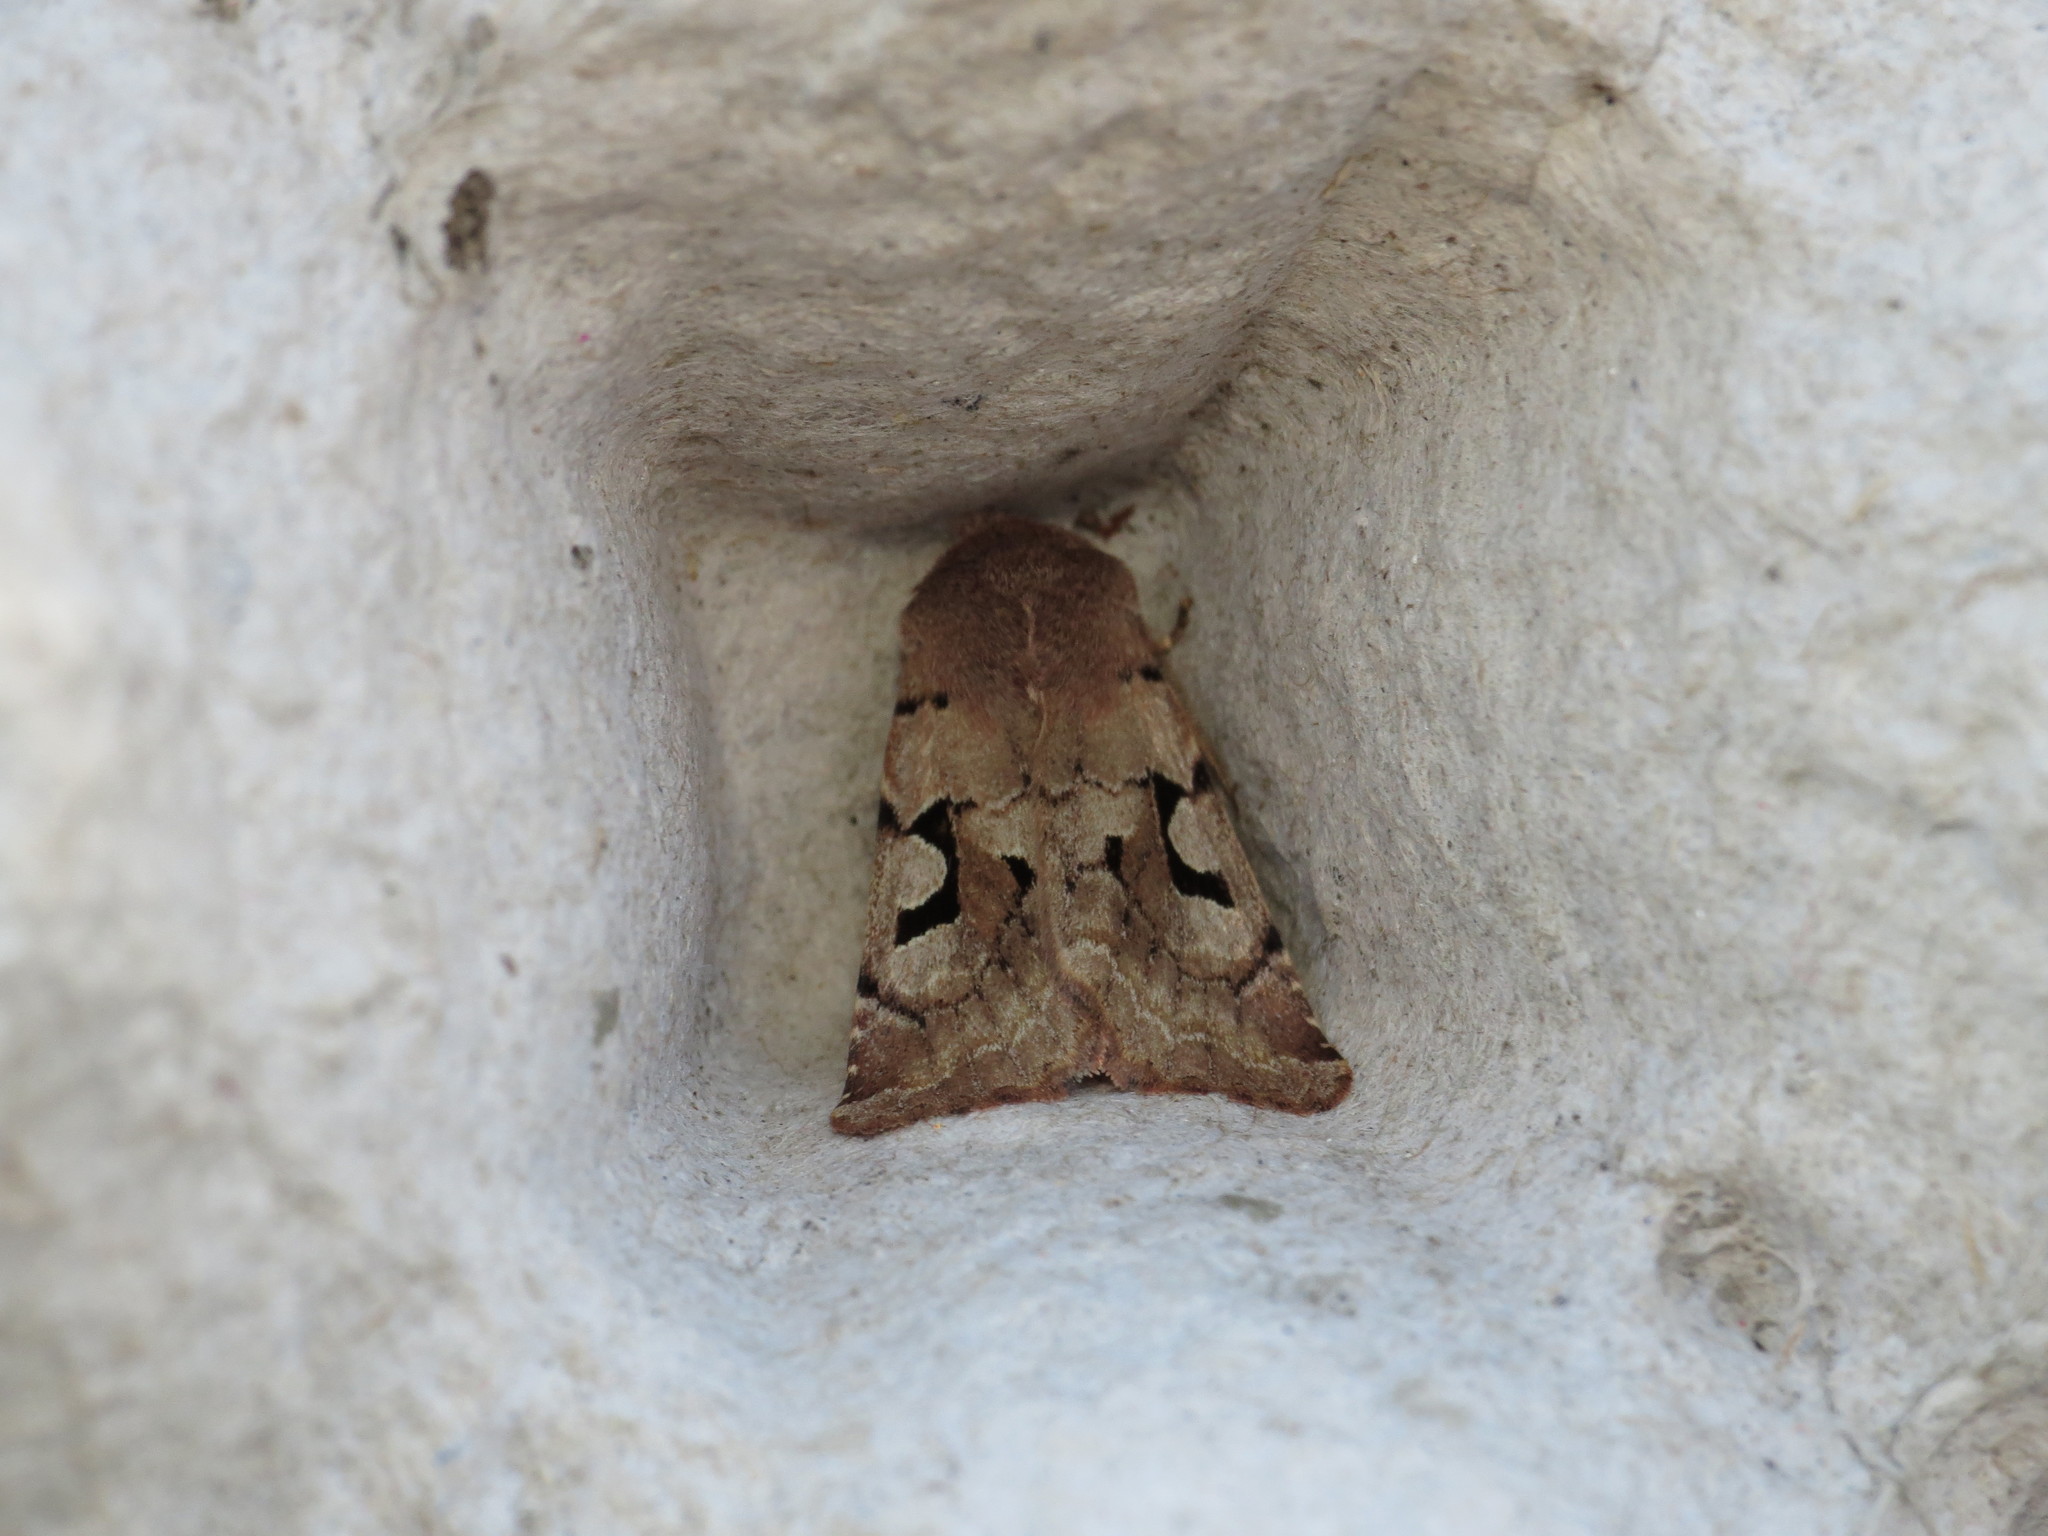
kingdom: Animalia
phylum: Arthropoda
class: Insecta
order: Lepidoptera
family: Noctuidae
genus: Orthosia
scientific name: Orthosia gothica
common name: Hebrew character
